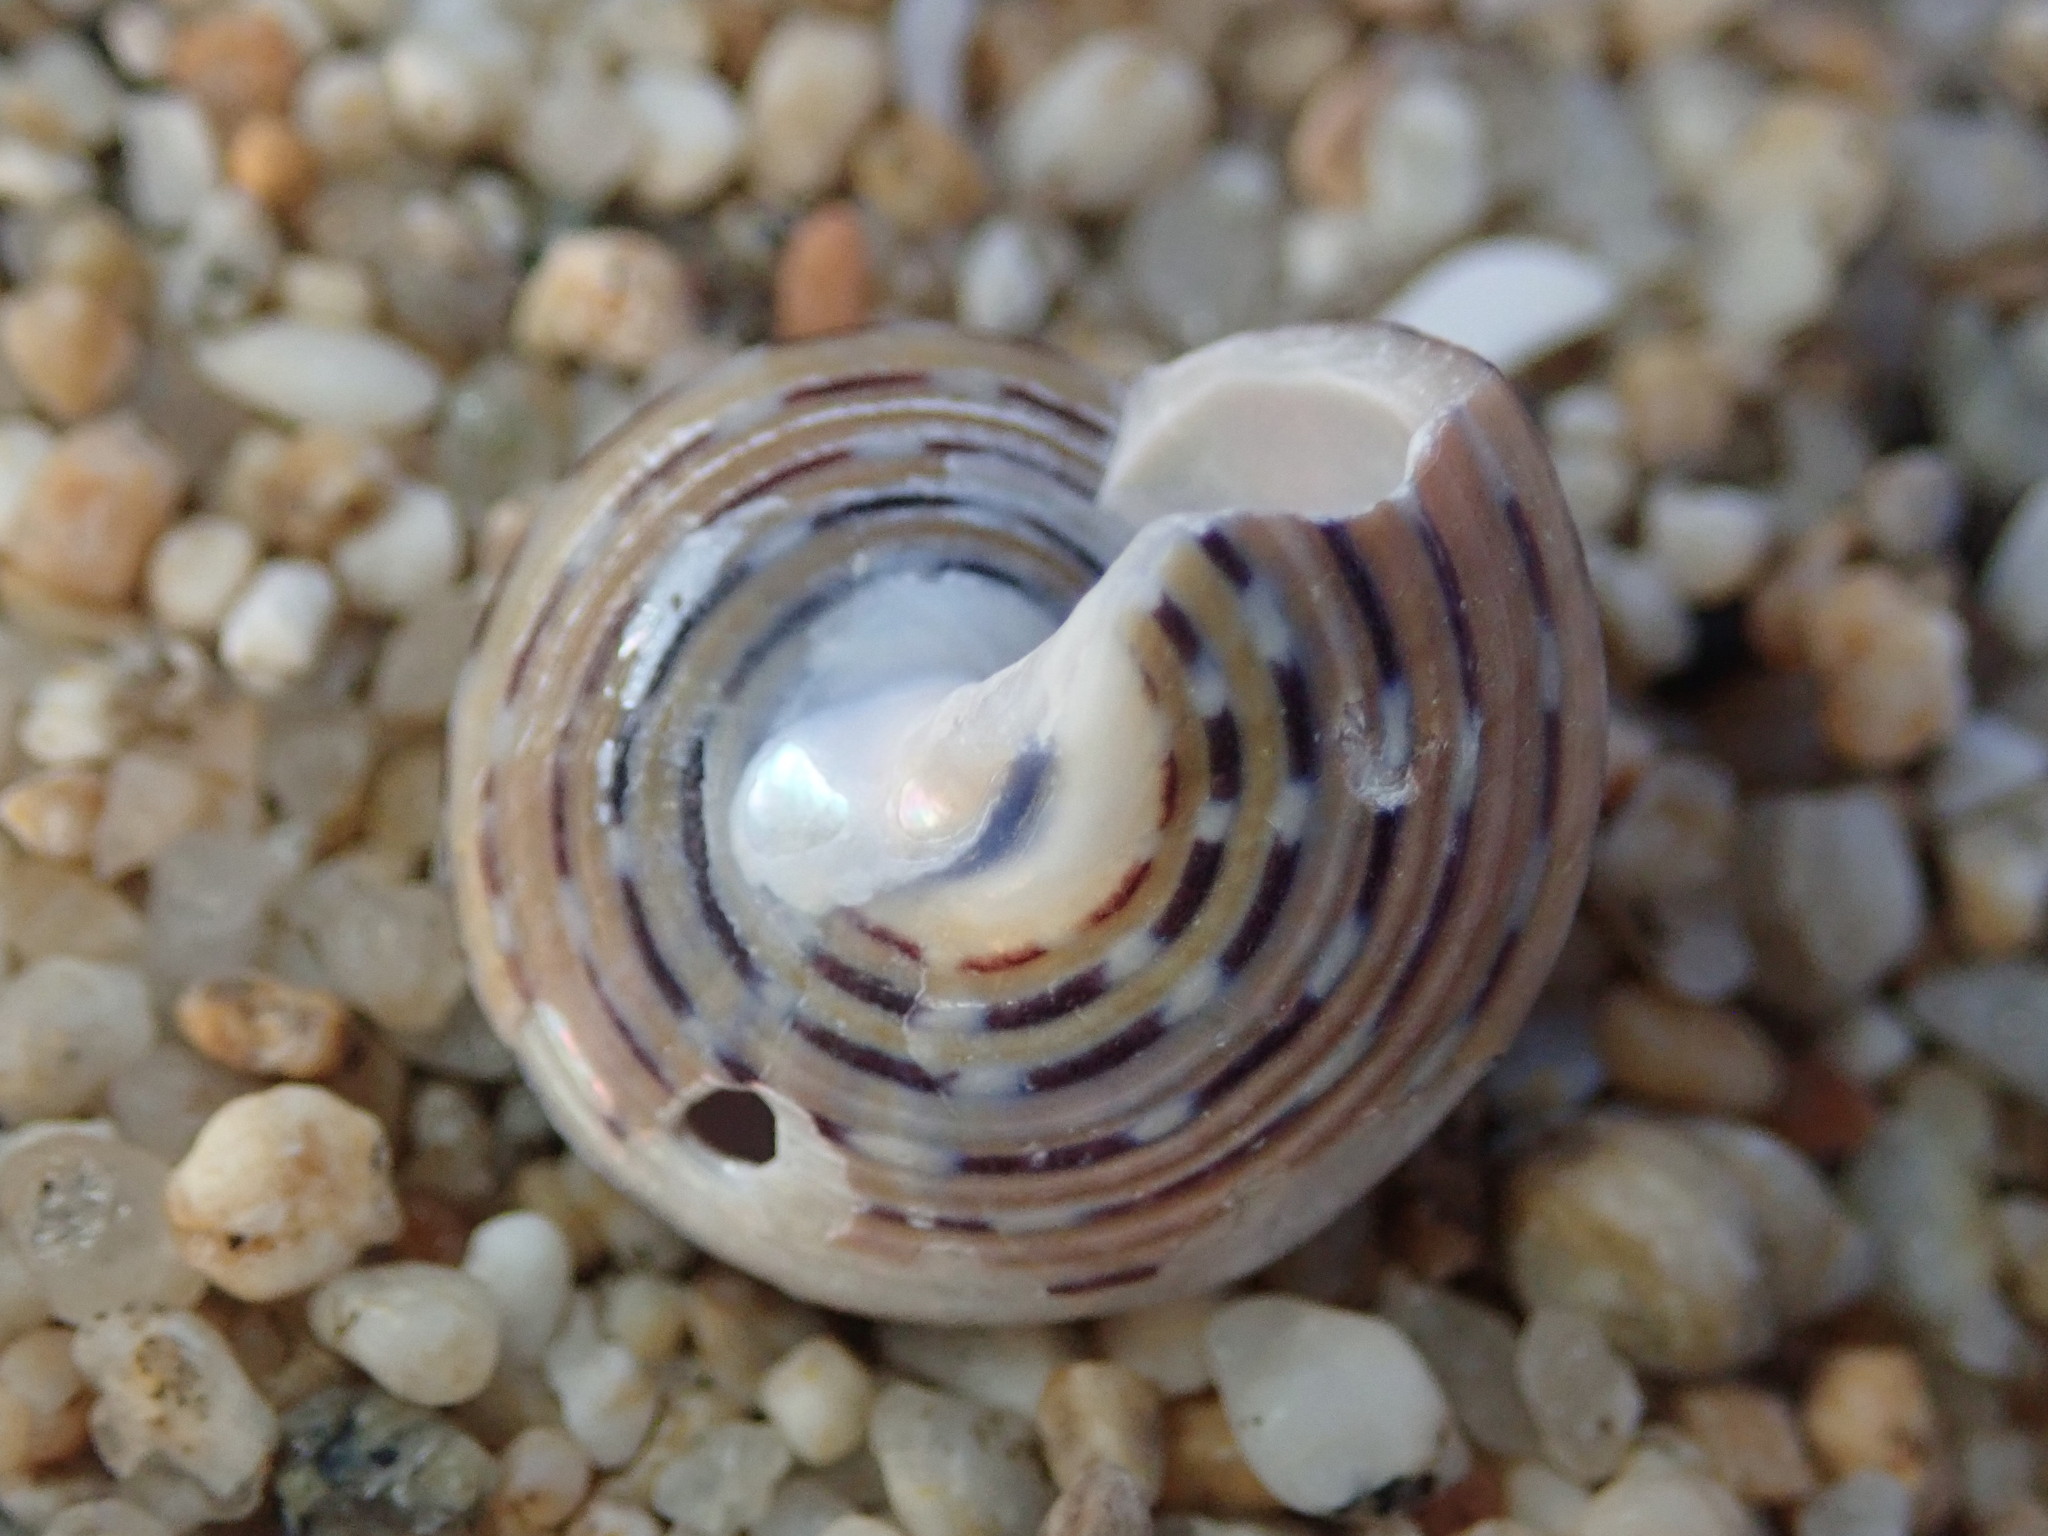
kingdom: Animalia
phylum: Mollusca
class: Gastropoda
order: Trochida
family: Calliostomatidae
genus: Calliostoma
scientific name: Calliostoma tricolor
